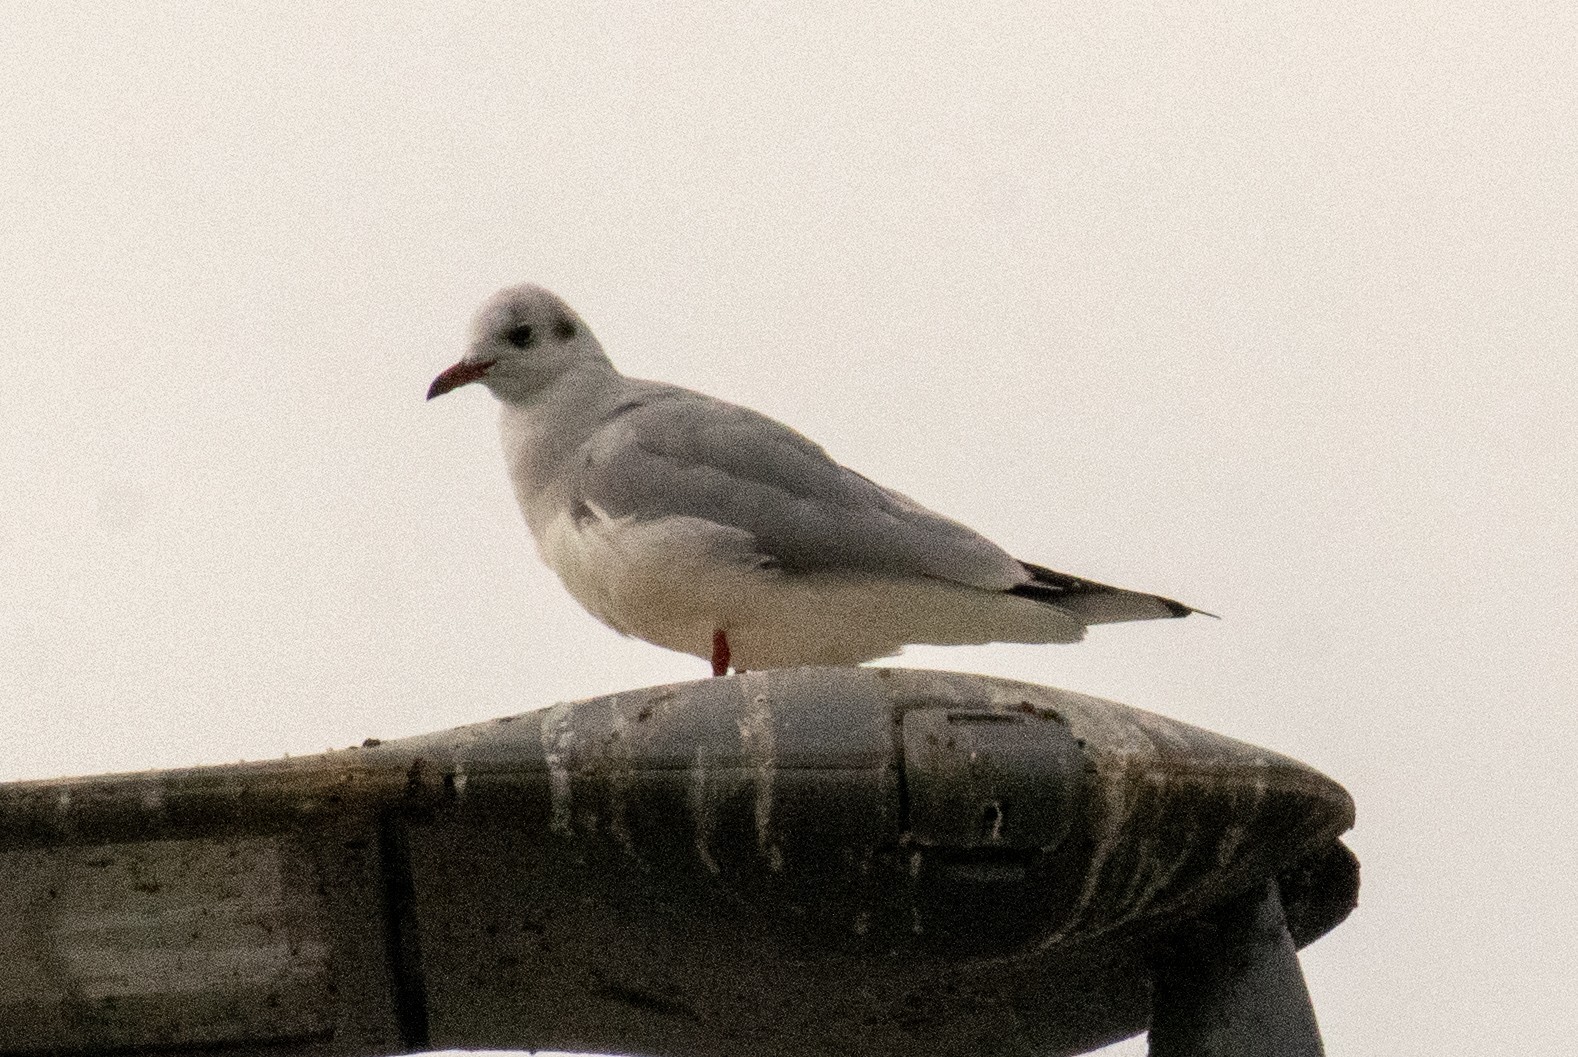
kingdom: Animalia
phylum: Chordata
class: Aves
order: Charadriiformes
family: Laridae
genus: Chroicocephalus
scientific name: Chroicocephalus ridibundus
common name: Black-headed gull
